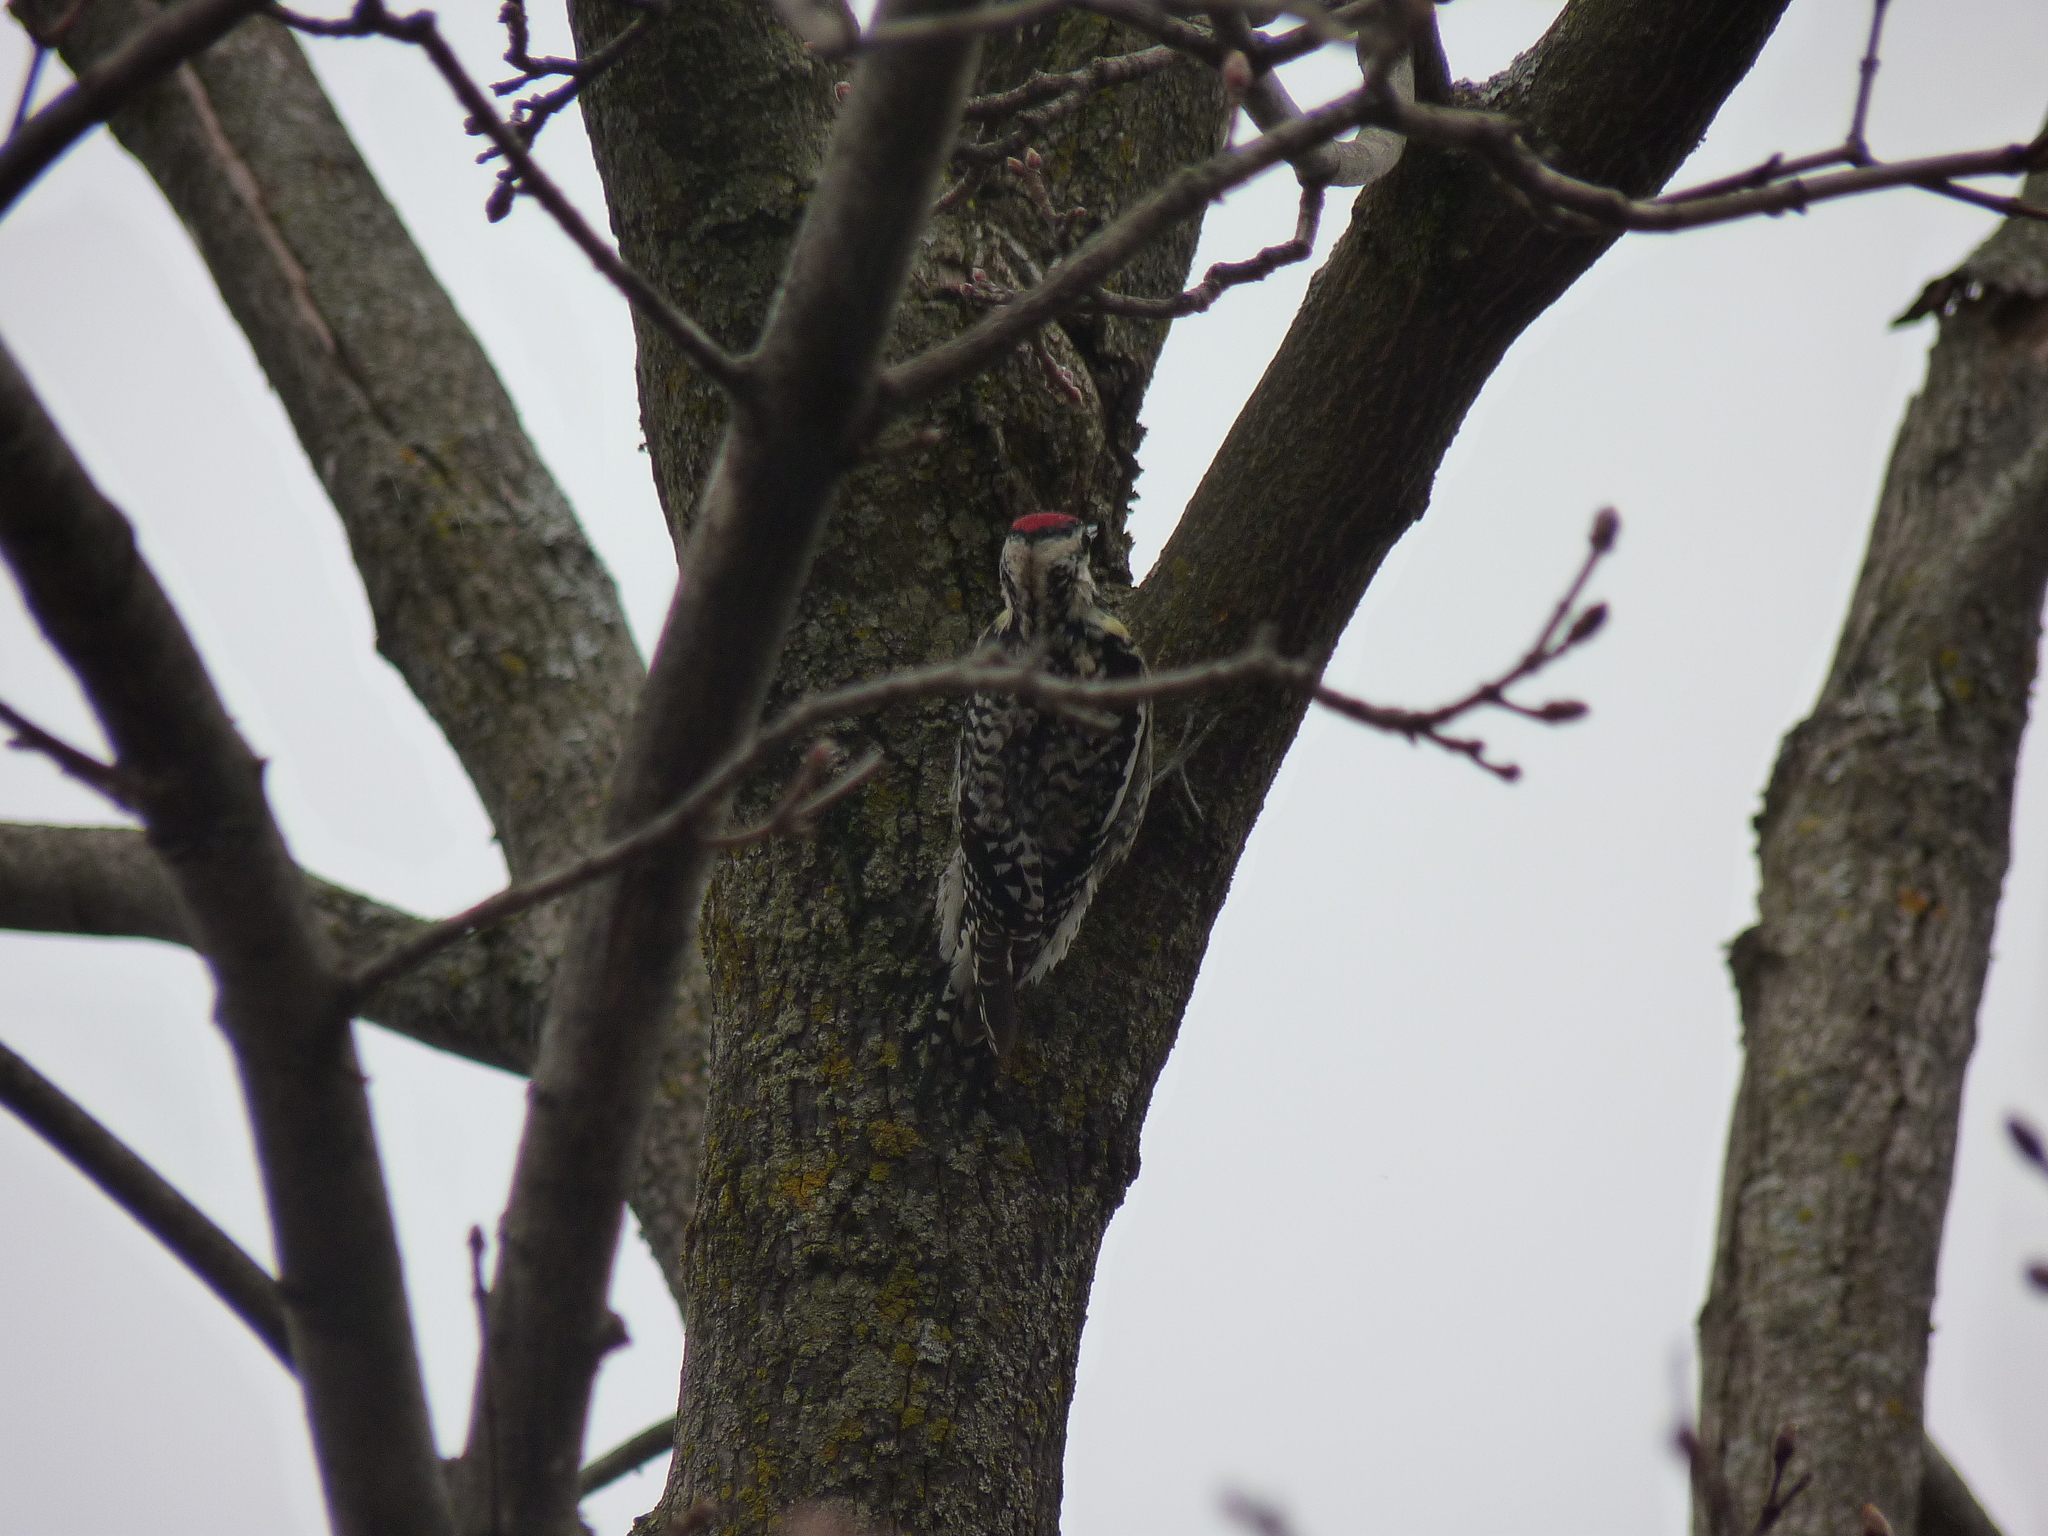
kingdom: Animalia
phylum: Chordata
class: Aves
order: Piciformes
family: Picidae
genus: Sphyrapicus
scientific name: Sphyrapicus varius
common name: Yellow-bellied sapsucker
